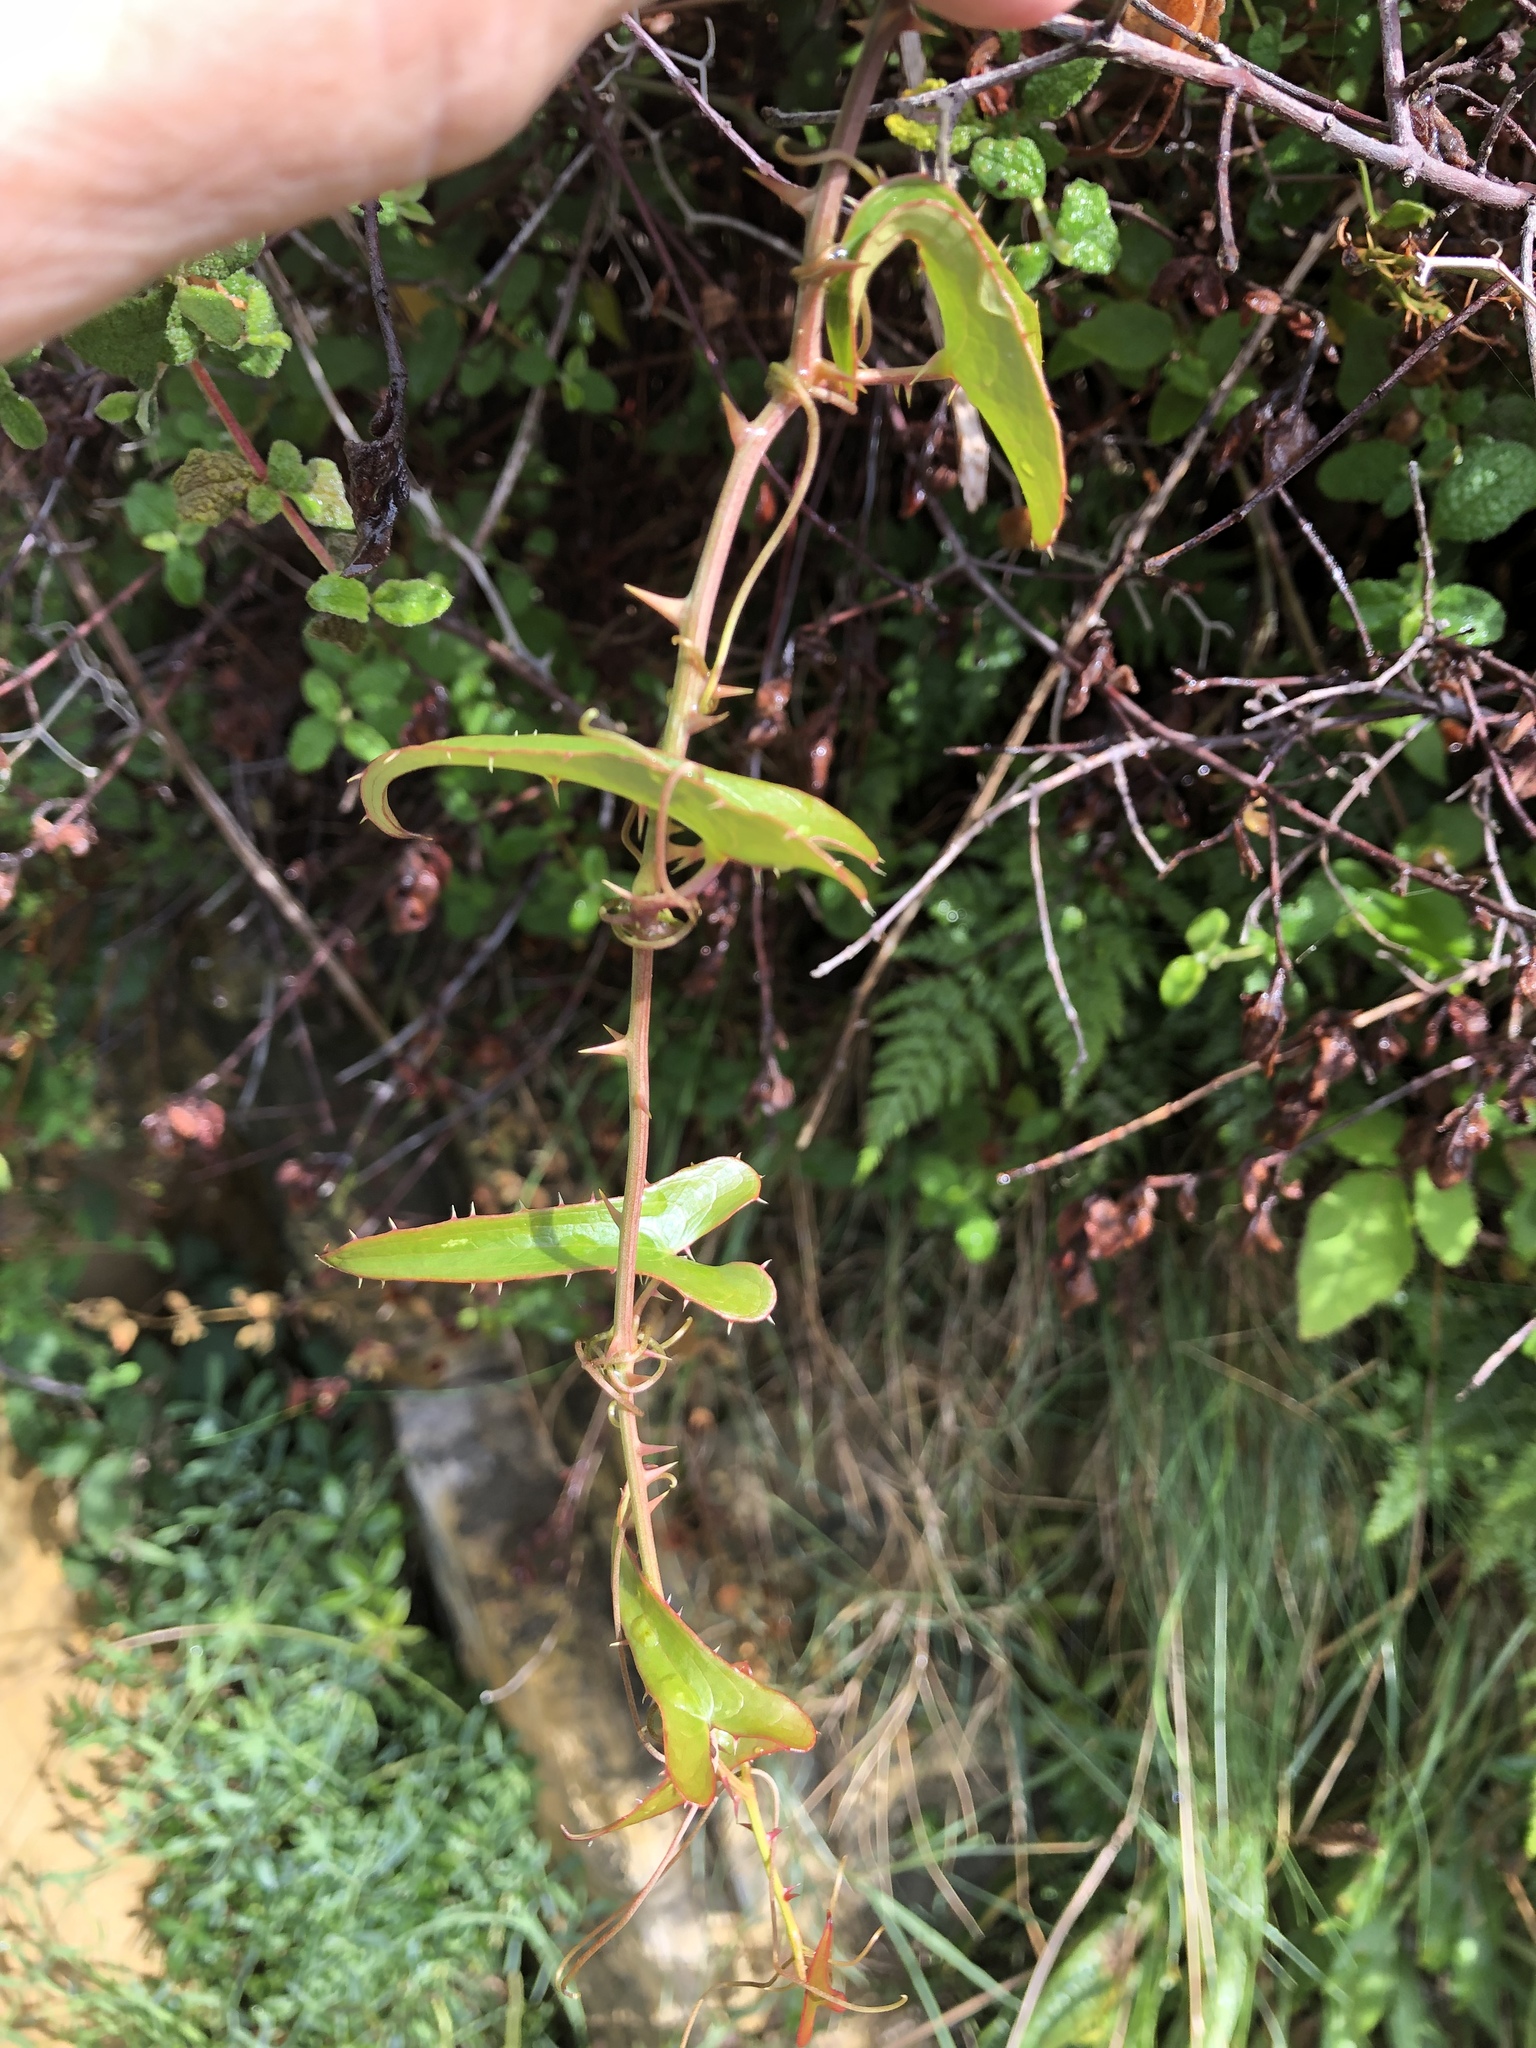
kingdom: Plantae
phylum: Tracheophyta
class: Liliopsida
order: Liliales
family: Smilacaceae
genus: Smilax
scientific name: Smilax aspera
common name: Common smilax
